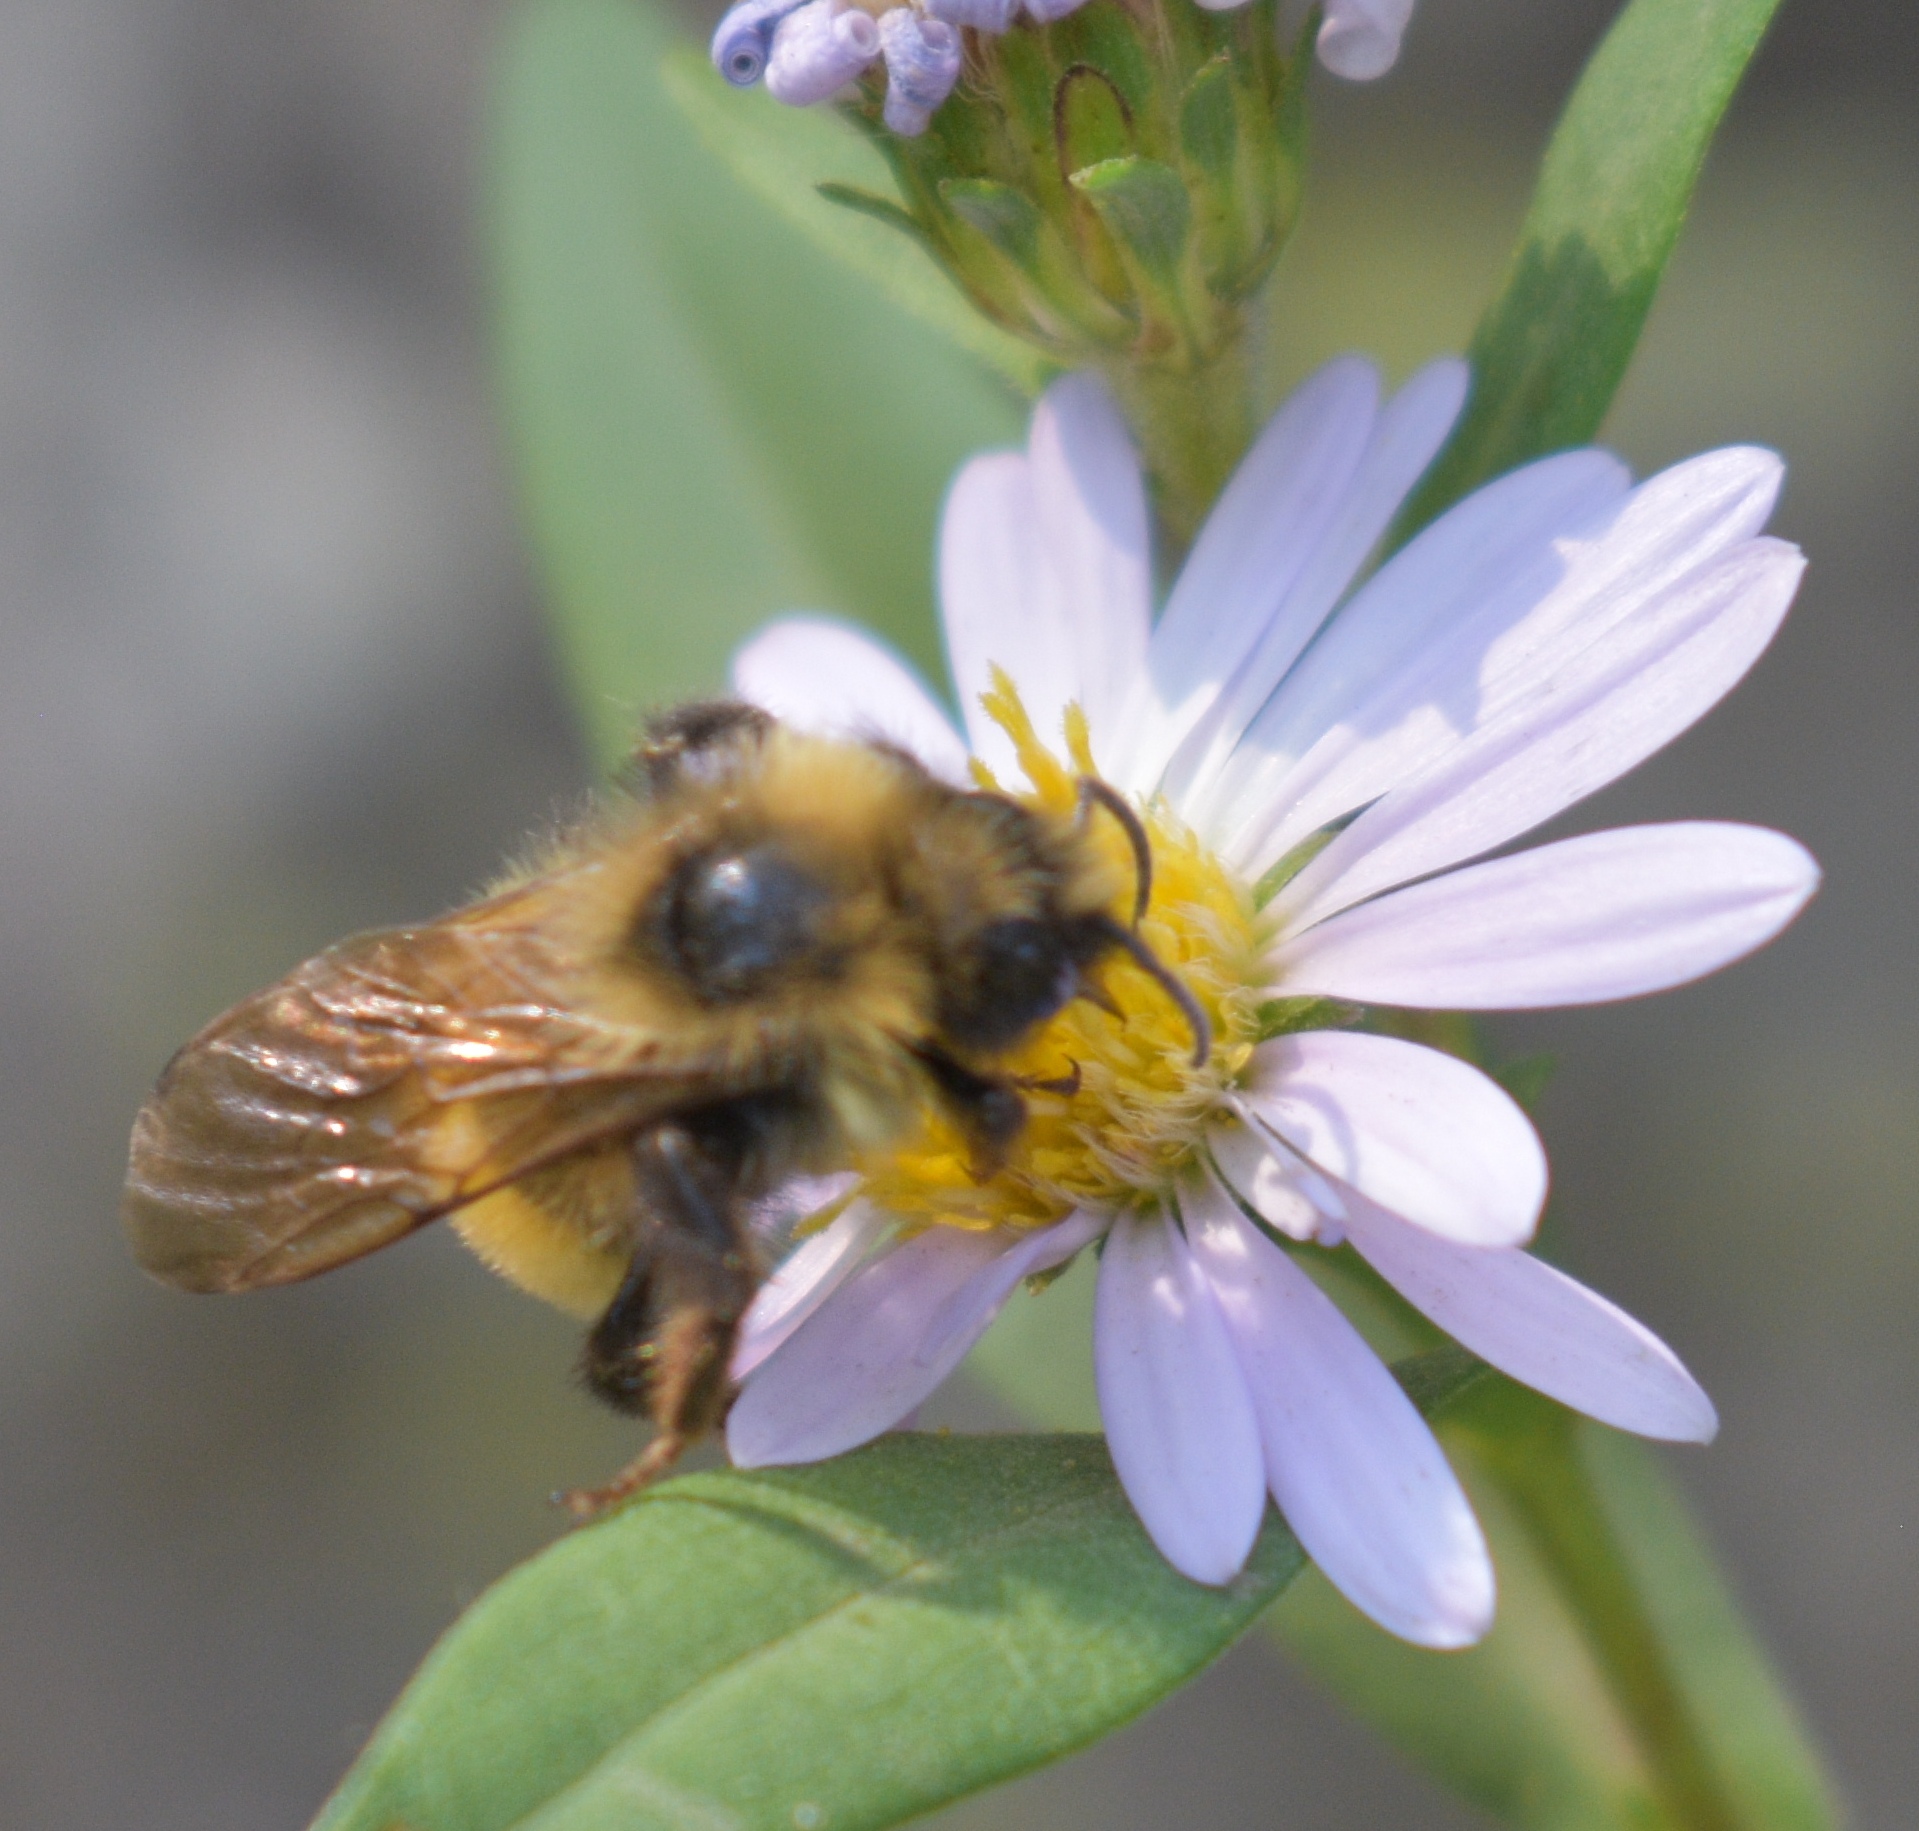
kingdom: Animalia
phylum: Arthropoda
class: Insecta
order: Hymenoptera
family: Apidae
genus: Bombus
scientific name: Bombus insularis
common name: Indiscriminate cuckoo bumble bee
